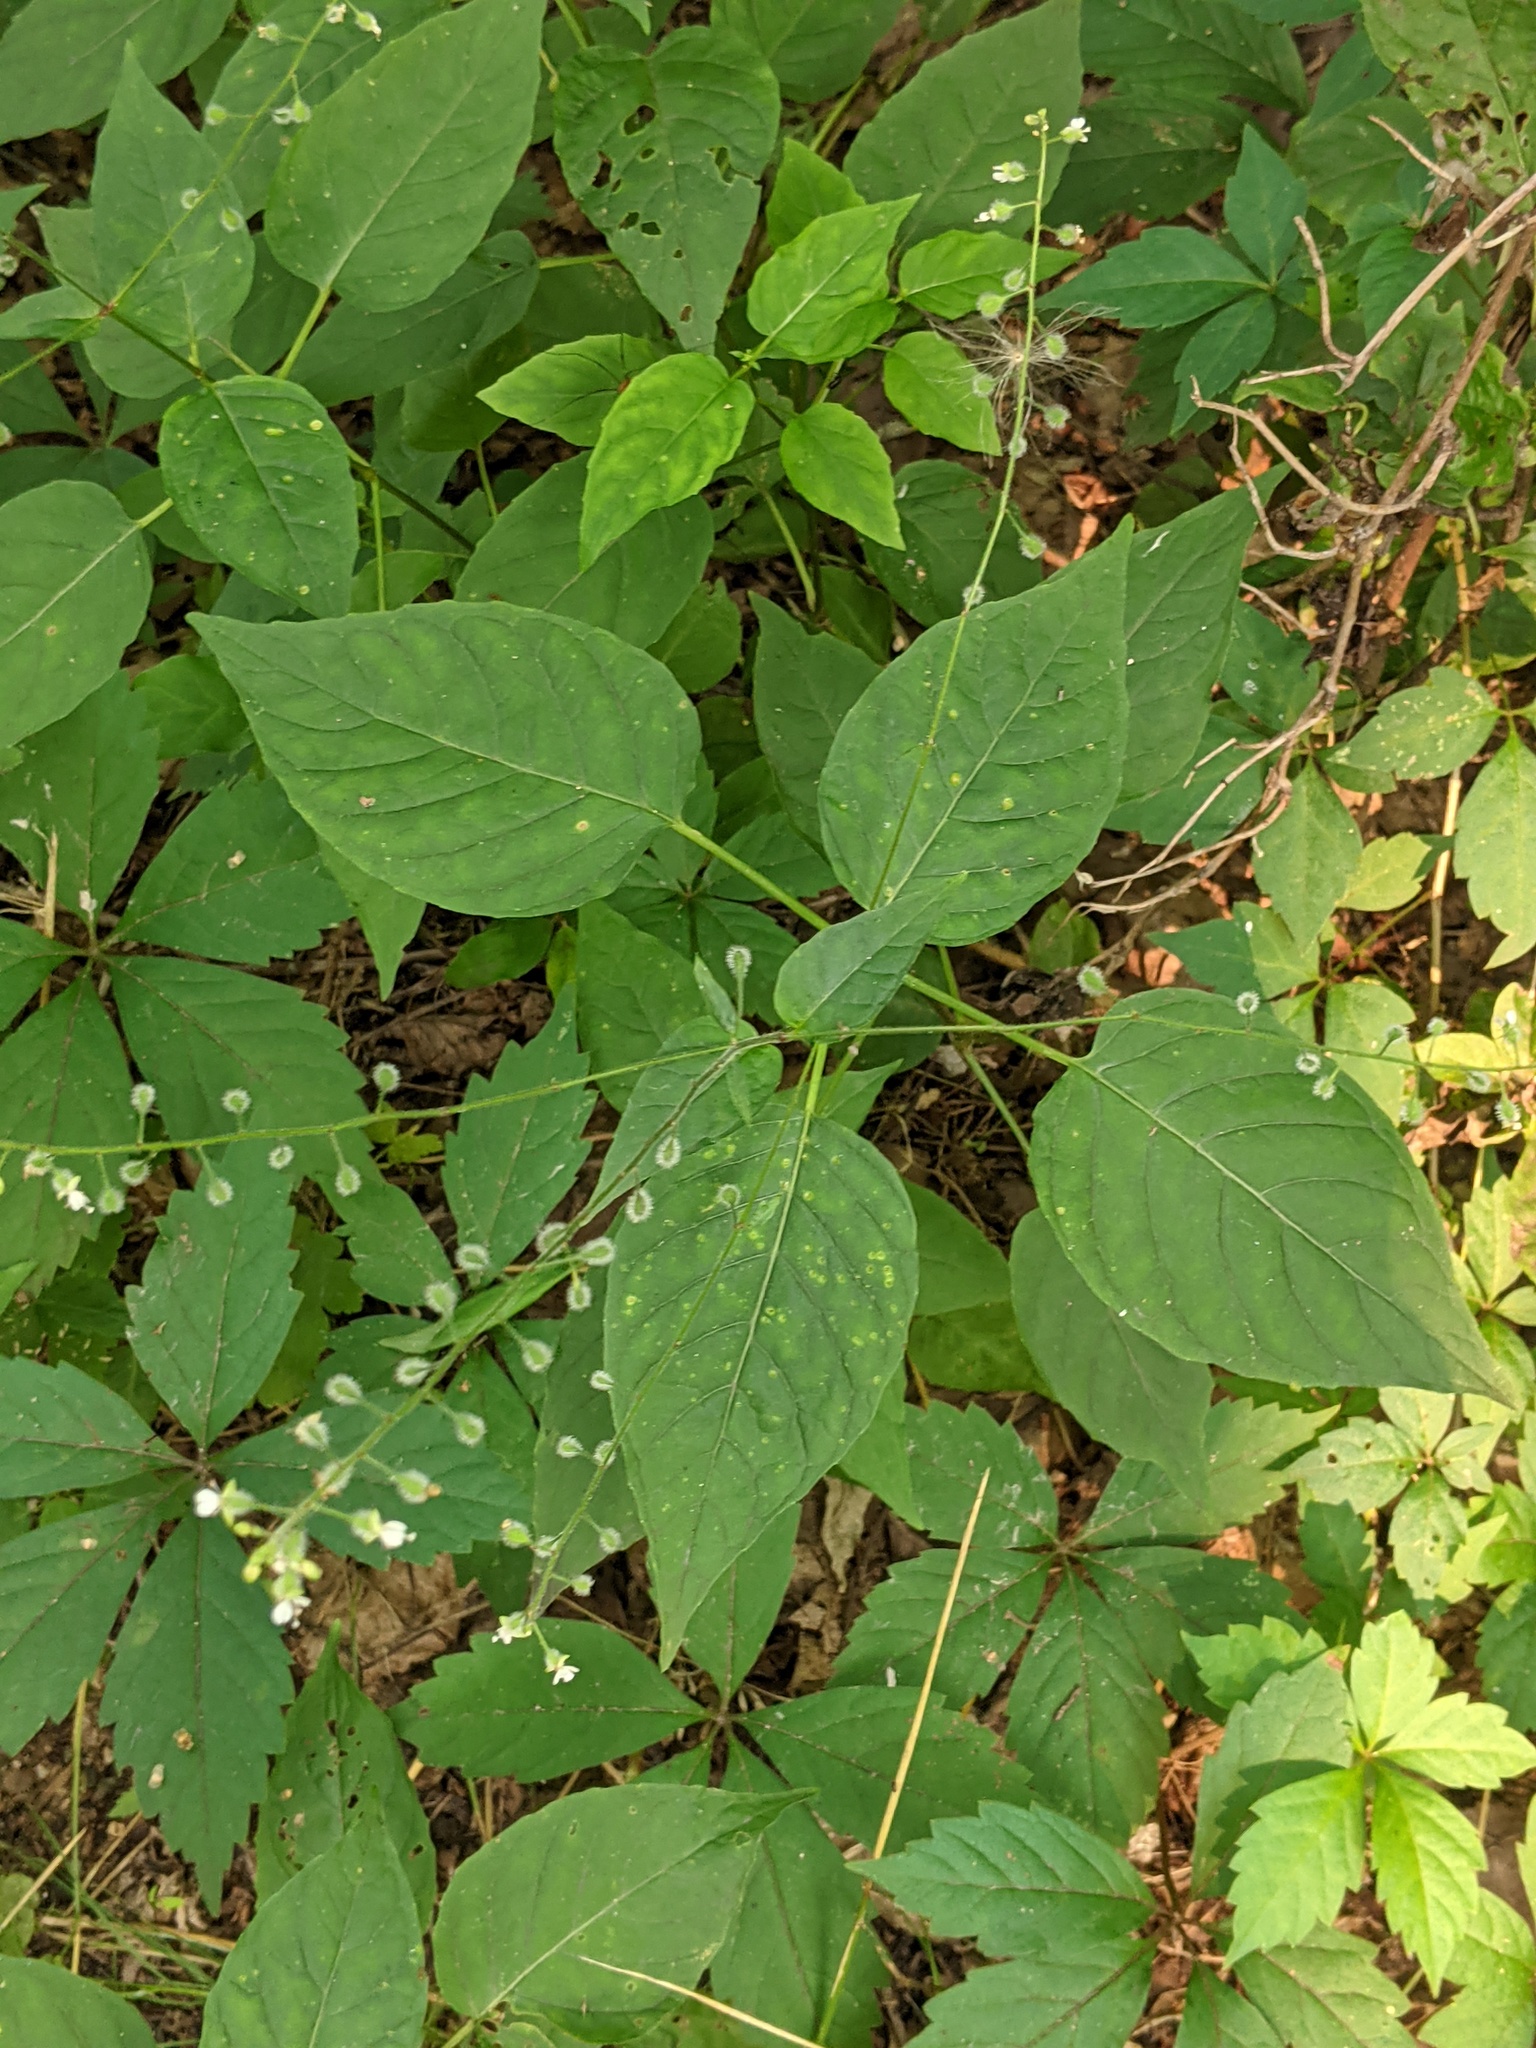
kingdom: Plantae
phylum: Tracheophyta
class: Magnoliopsida
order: Myrtales
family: Onagraceae
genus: Circaea
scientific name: Circaea canadensis
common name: Broad-leaved enchanter's nightshade
